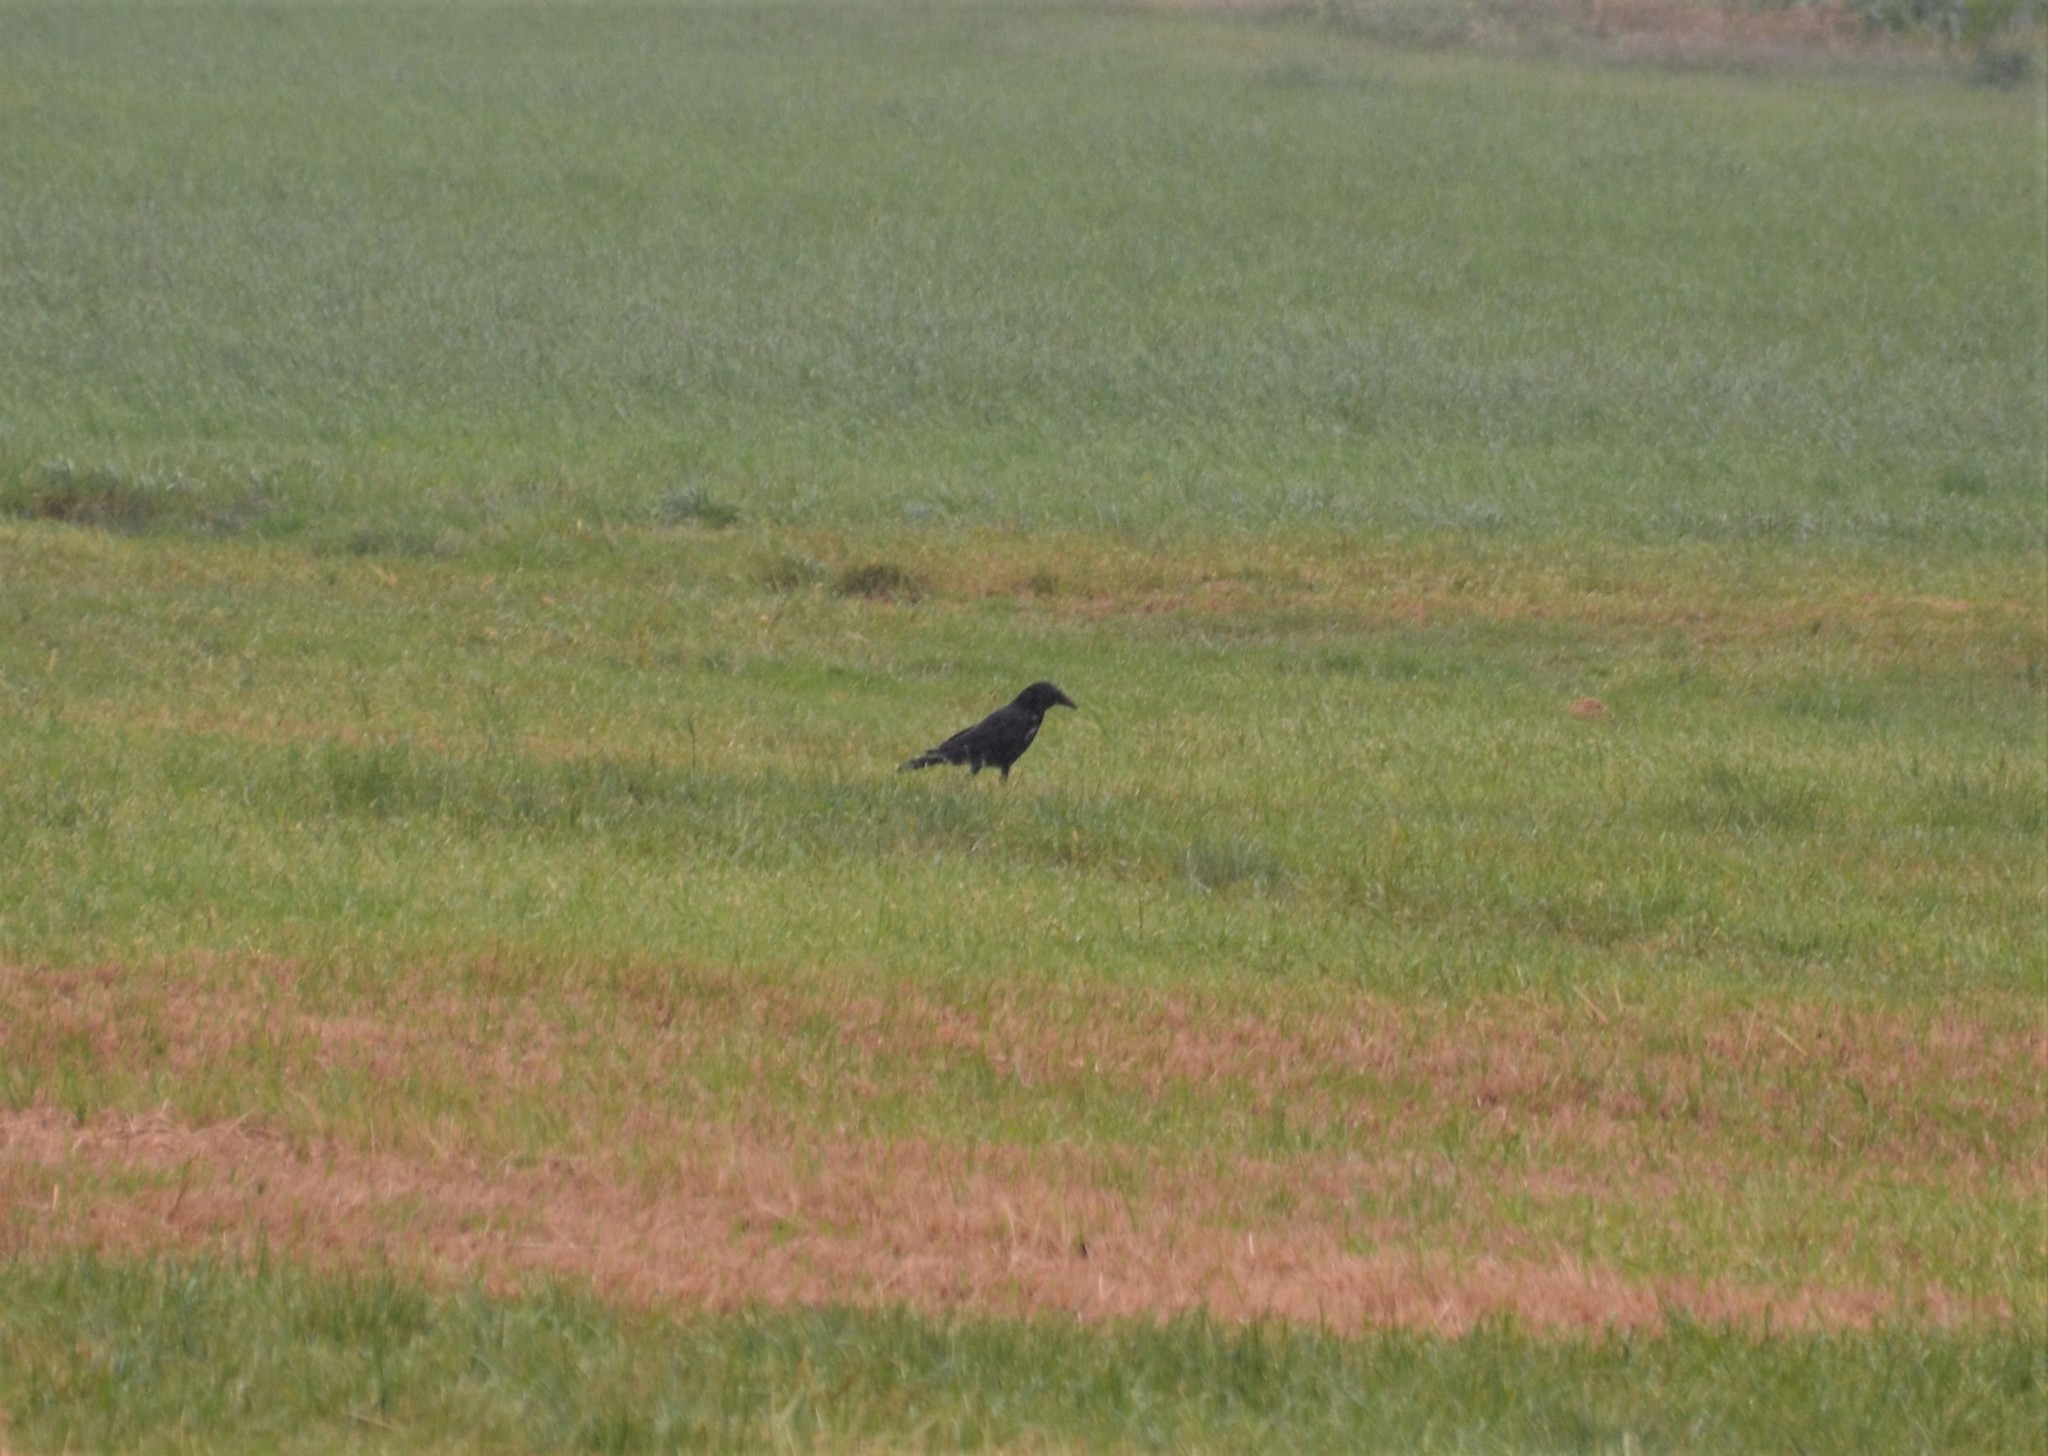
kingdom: Animalia
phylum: Chordata
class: Aves
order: Passeriformes
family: Corvidae
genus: Corvus
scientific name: Corvus corone
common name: Carrion crow
